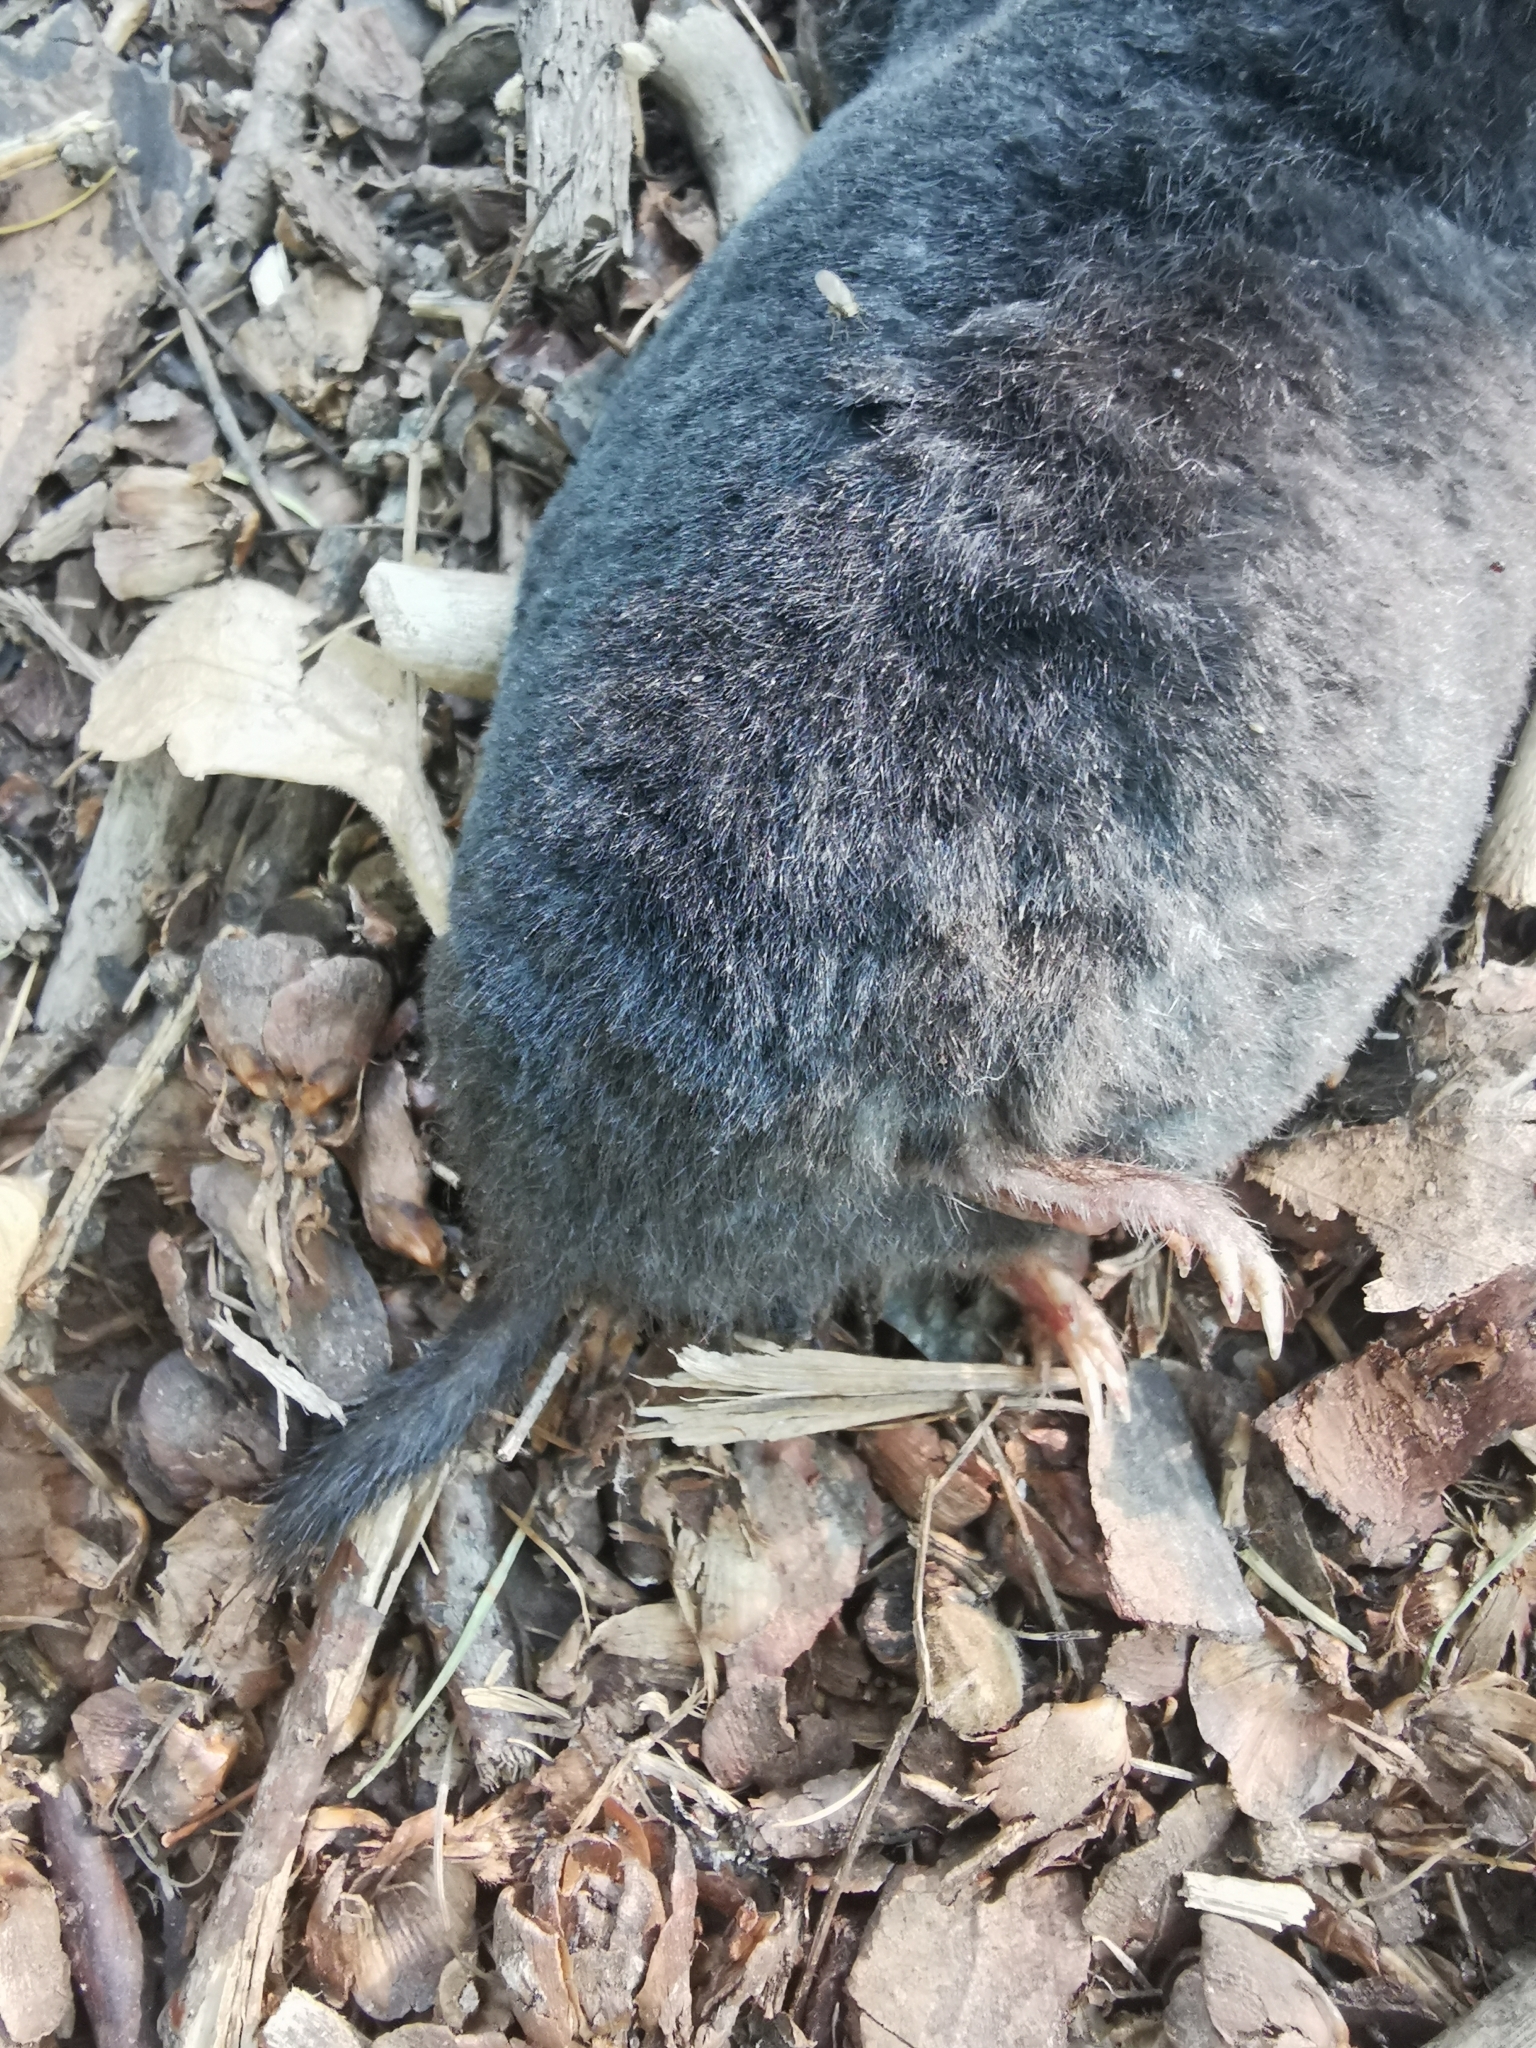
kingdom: Animalia
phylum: Chordata
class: Mammalia
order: Soricomorpha
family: Talpidae
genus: Talpa
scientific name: Talpa europaea
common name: European mole
